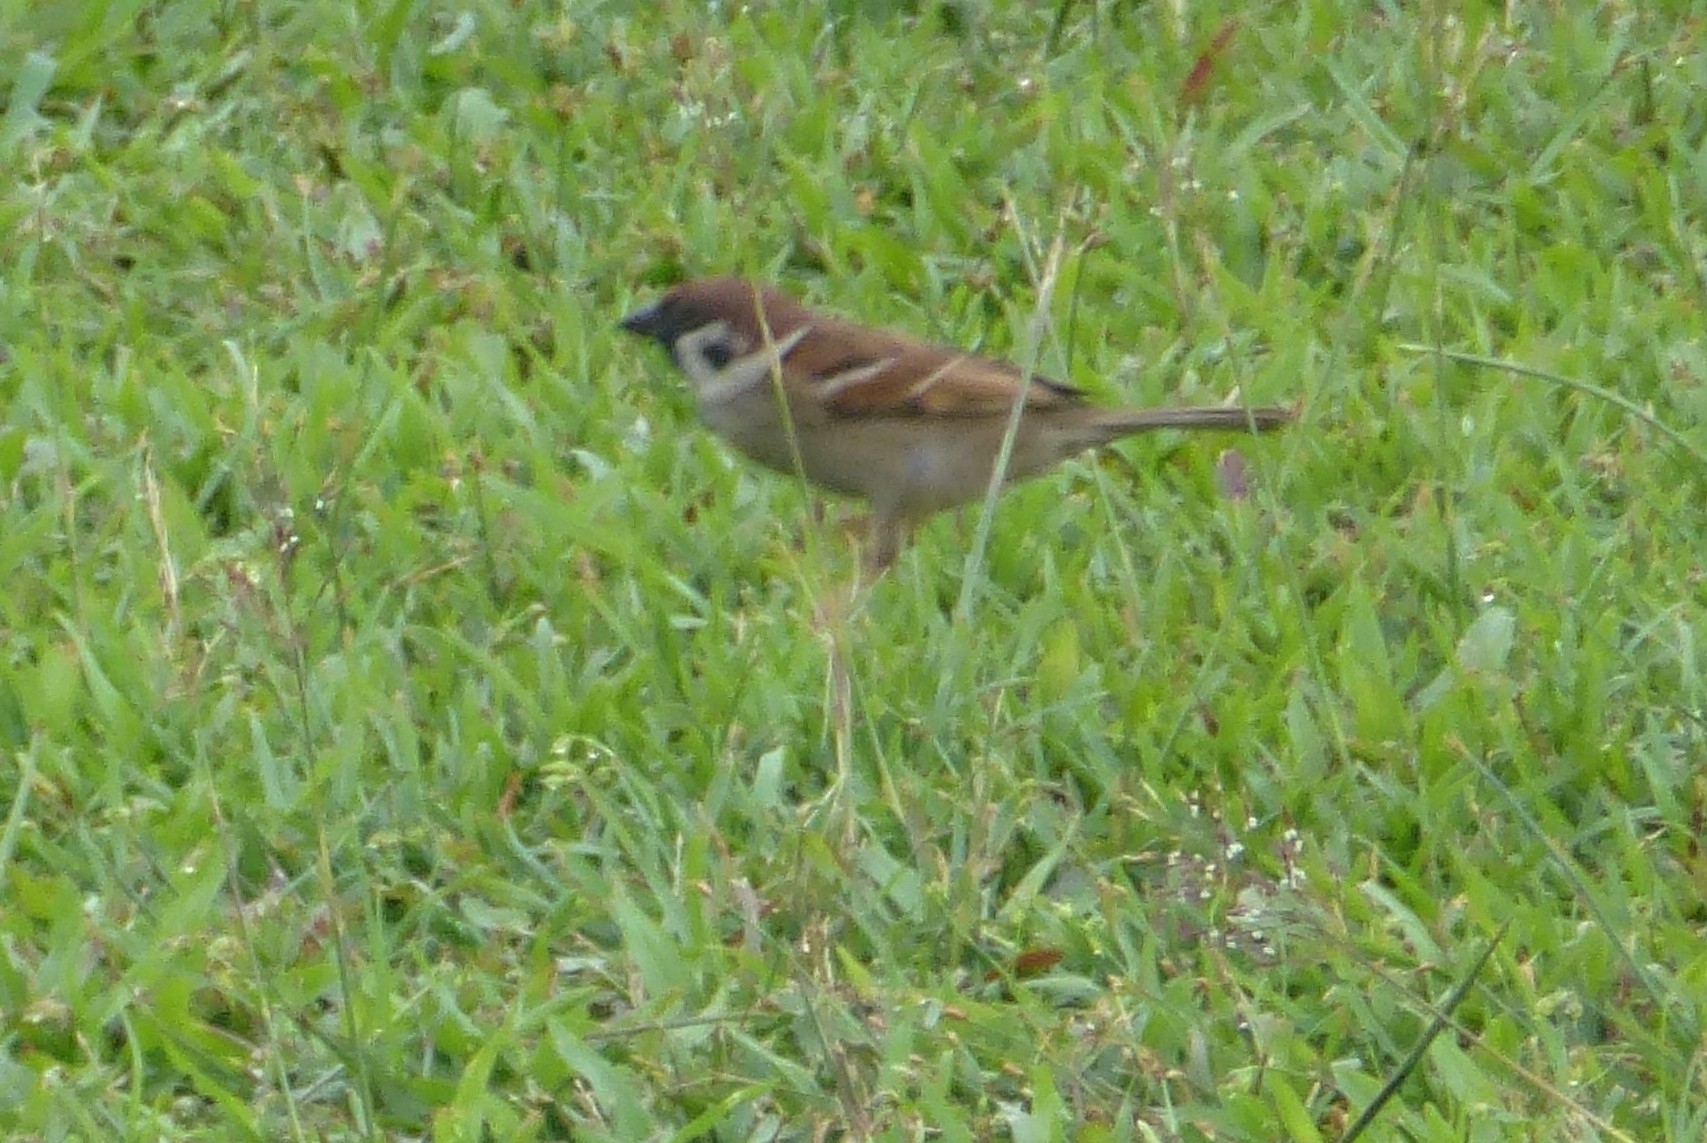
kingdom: Animalia
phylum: Chordata
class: Aves
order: Passeriformes
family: Passeridae
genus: Passer
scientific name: Passer montanus
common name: Eurasian tree sparrow
